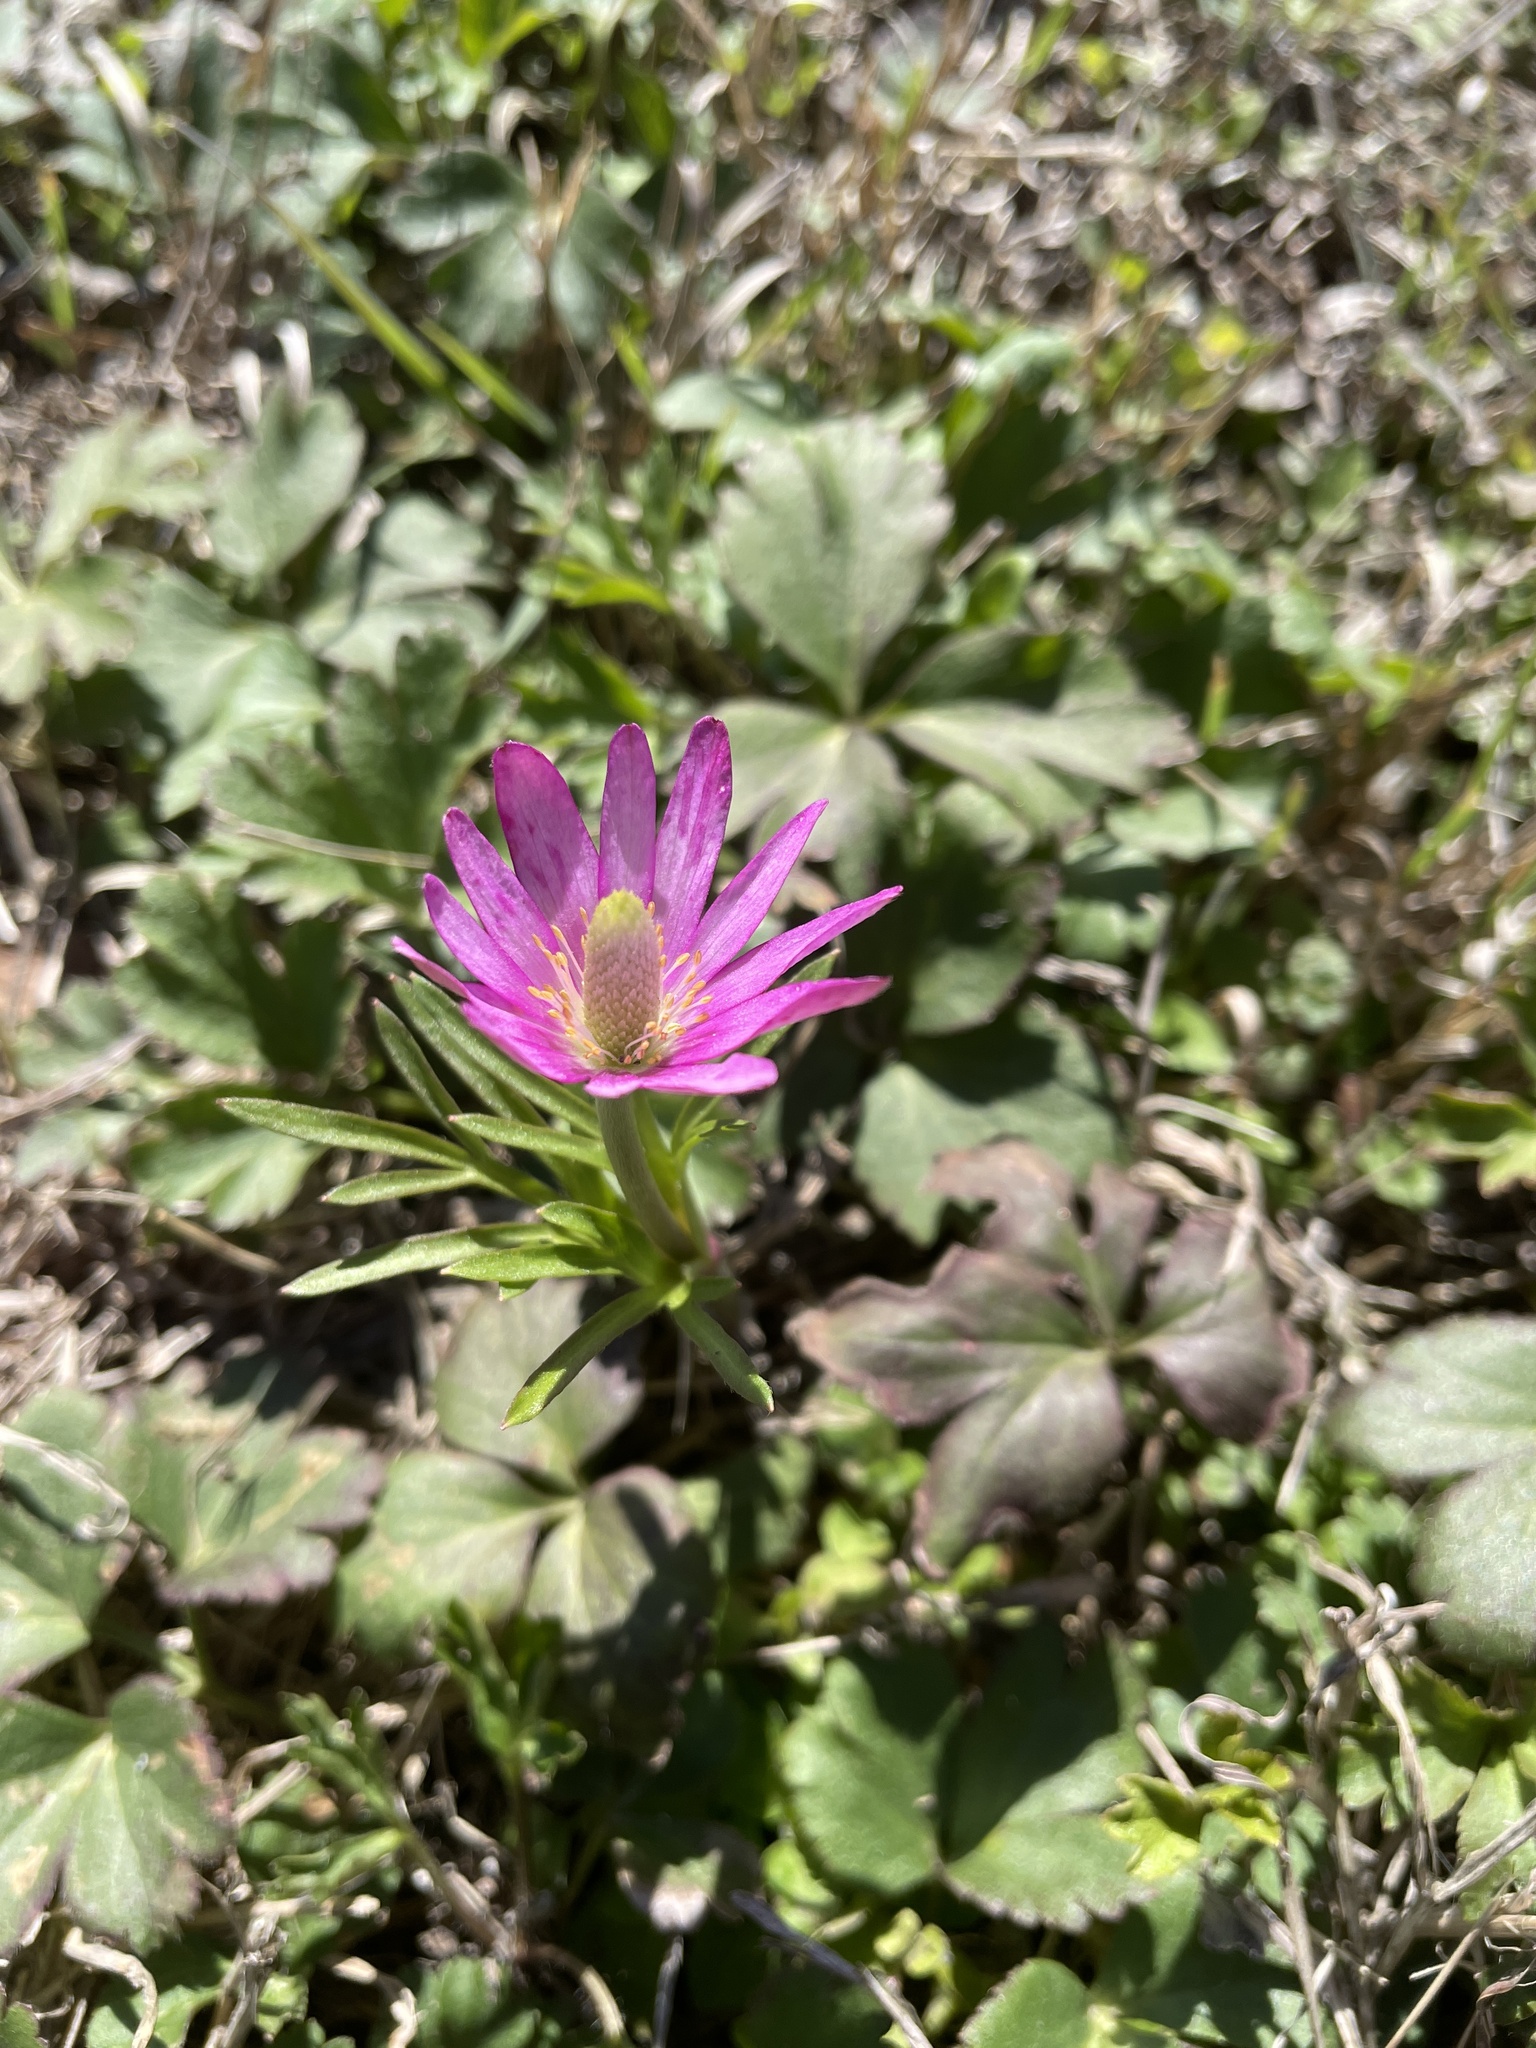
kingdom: Plantae
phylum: Tracheophyta
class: Magnoliopsida
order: Ranunculales
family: Ranunculaceae
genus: Anemone
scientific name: Anemone berlandieri
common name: Ten-petal anemone
